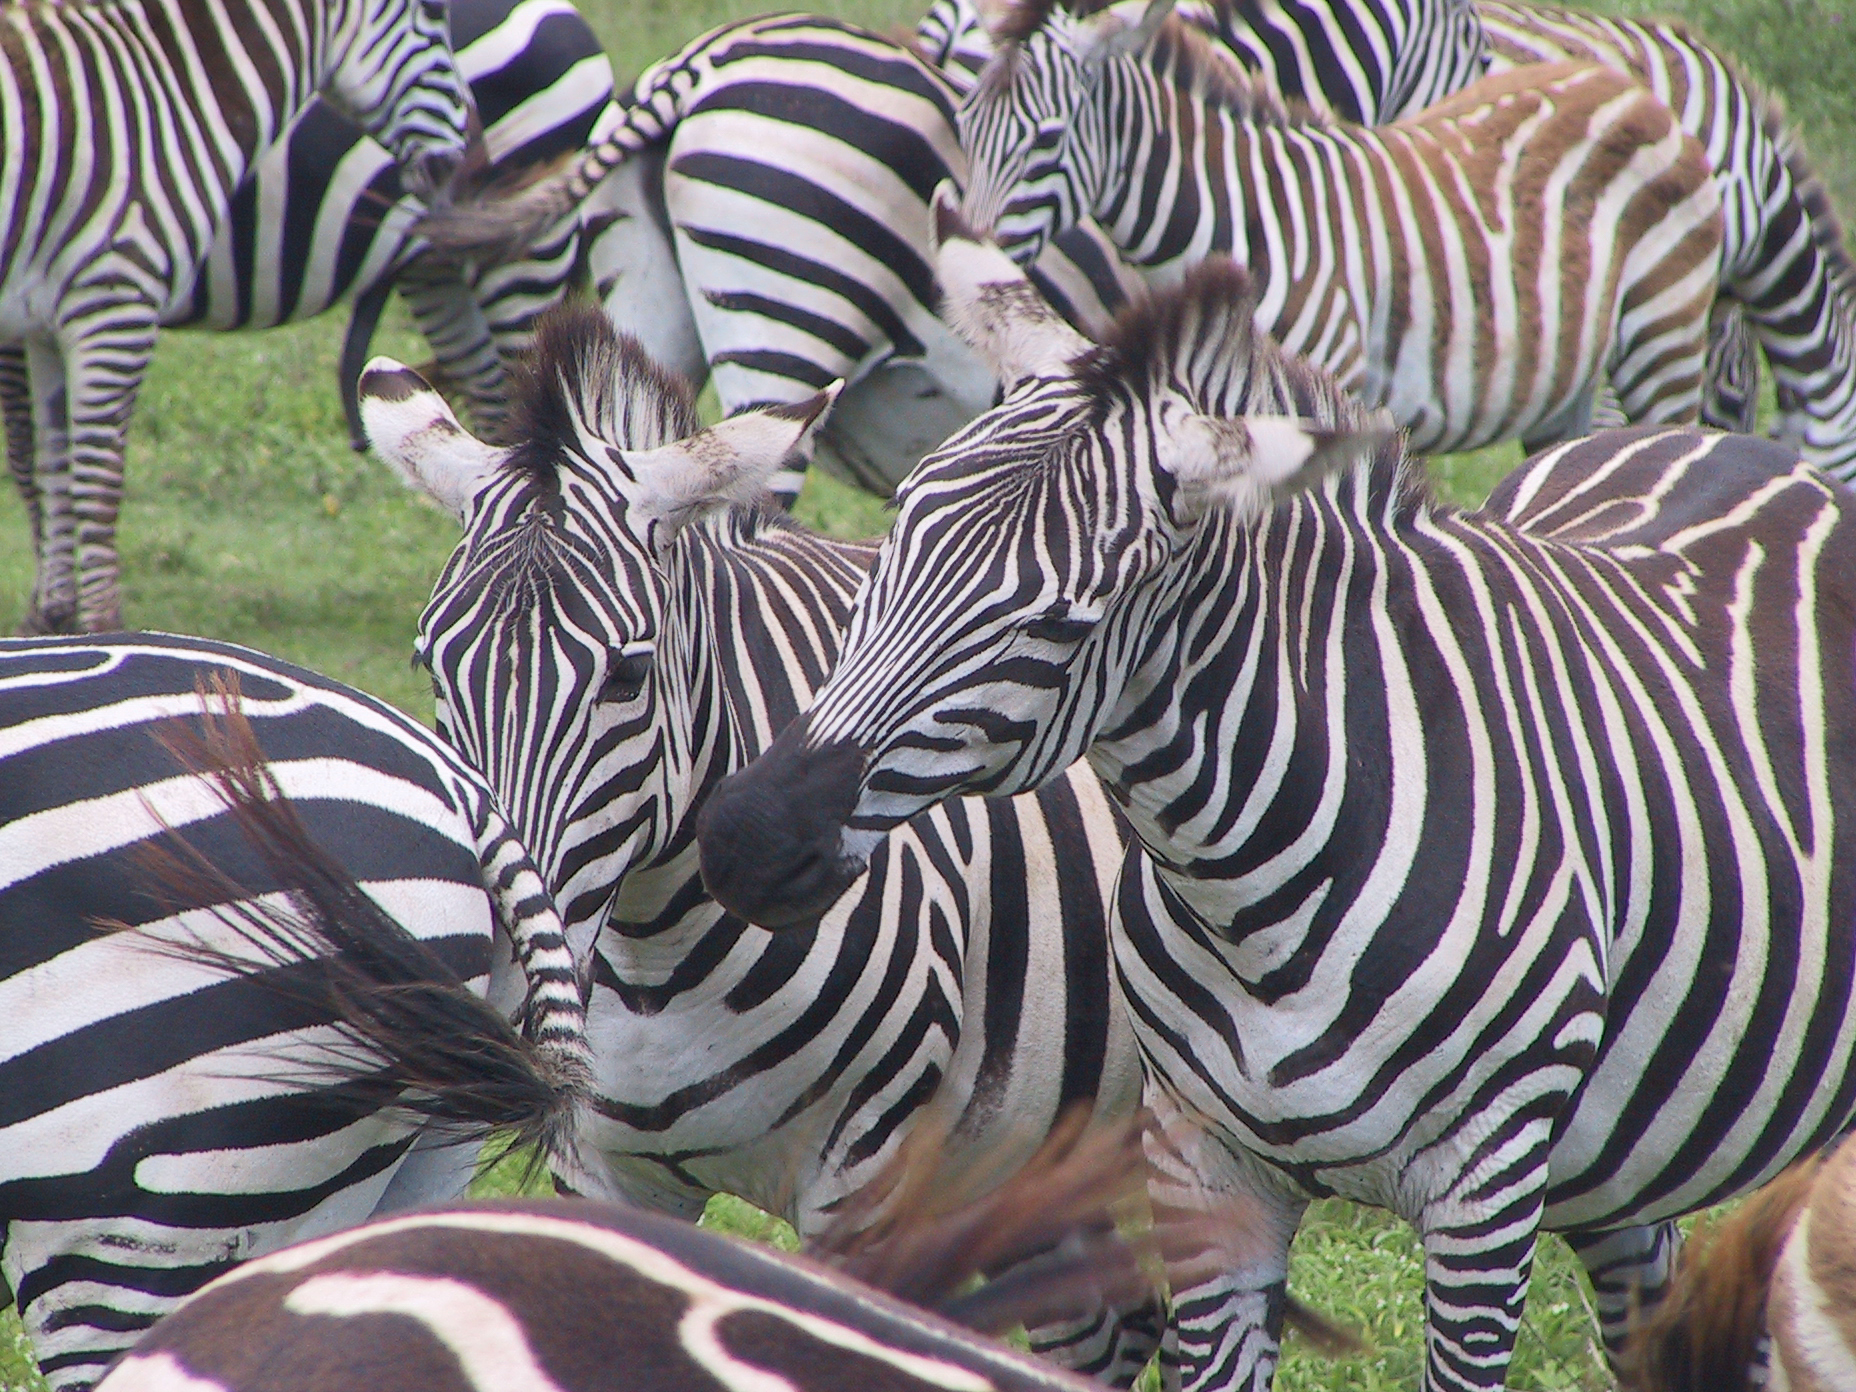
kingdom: Animalia
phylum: Chordata
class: Mammalia
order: Perissodactyla
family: Equidae
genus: Equus
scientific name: Equus quagga
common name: Plains zebra
